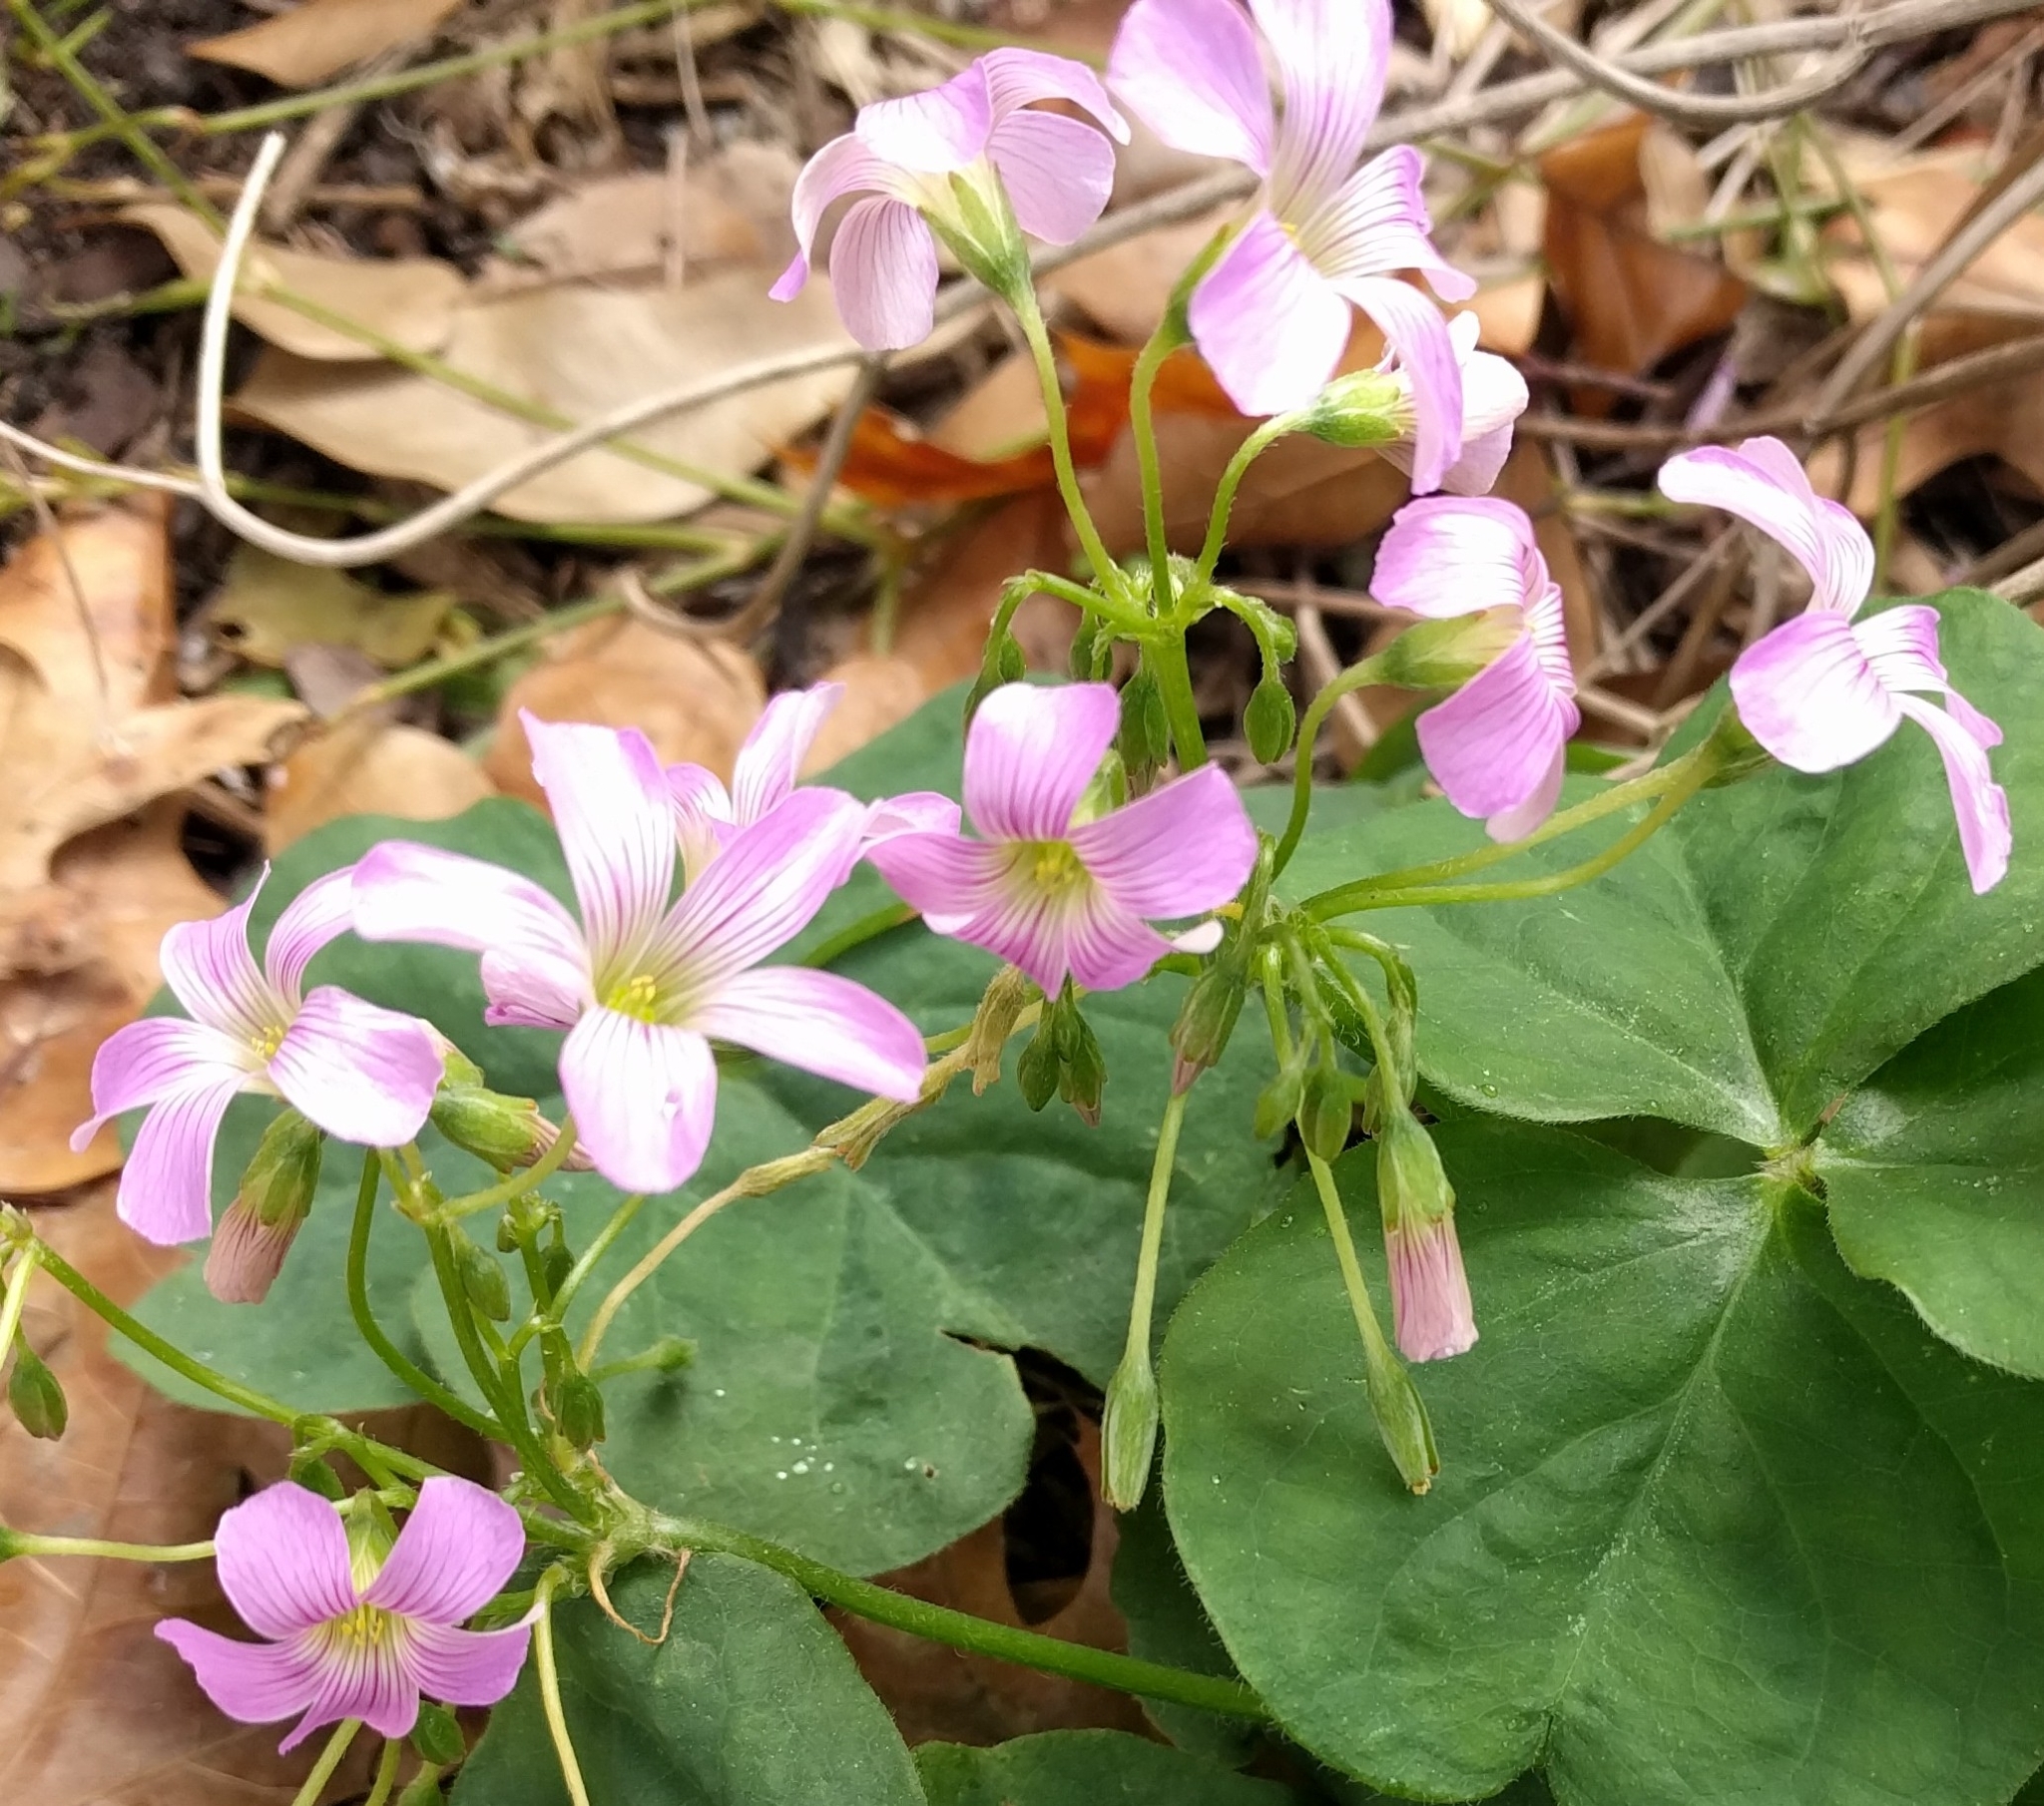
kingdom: Plantae
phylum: Tracheophyta
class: Magnoliopsida
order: Oxalidales
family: Oxalidaceae
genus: Oxalis
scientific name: Oxalis debilis
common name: Large-flowered pink-sorrel
